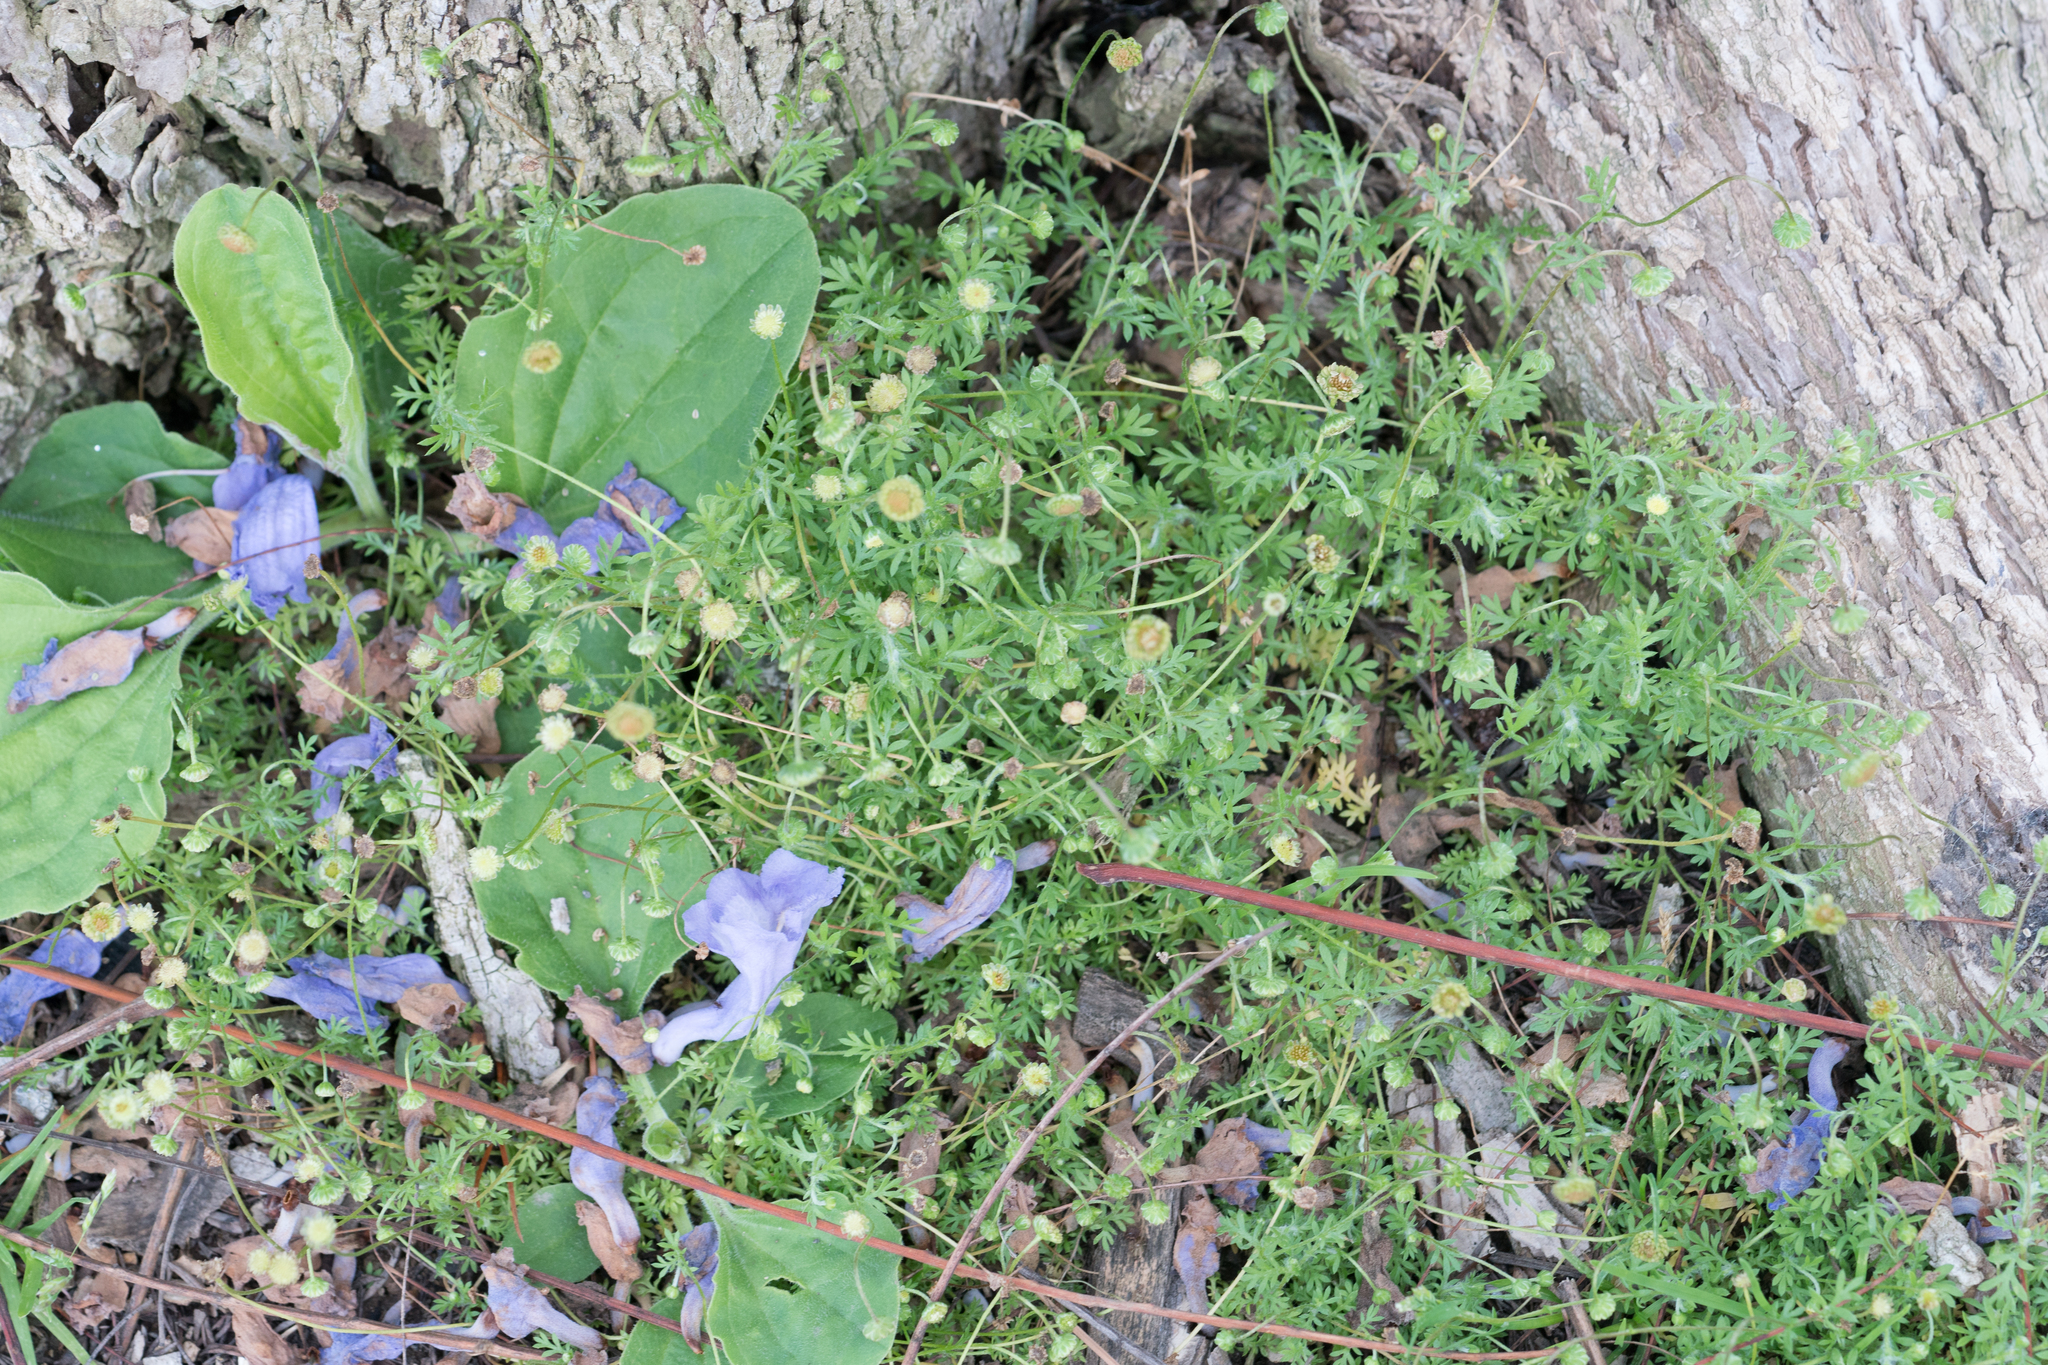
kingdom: Plantae
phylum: Tracheophyta
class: Magnoliopsida
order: Asterales
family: Asteraceae
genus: Cotula
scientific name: Cotula australis
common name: Australian waterbuttons
